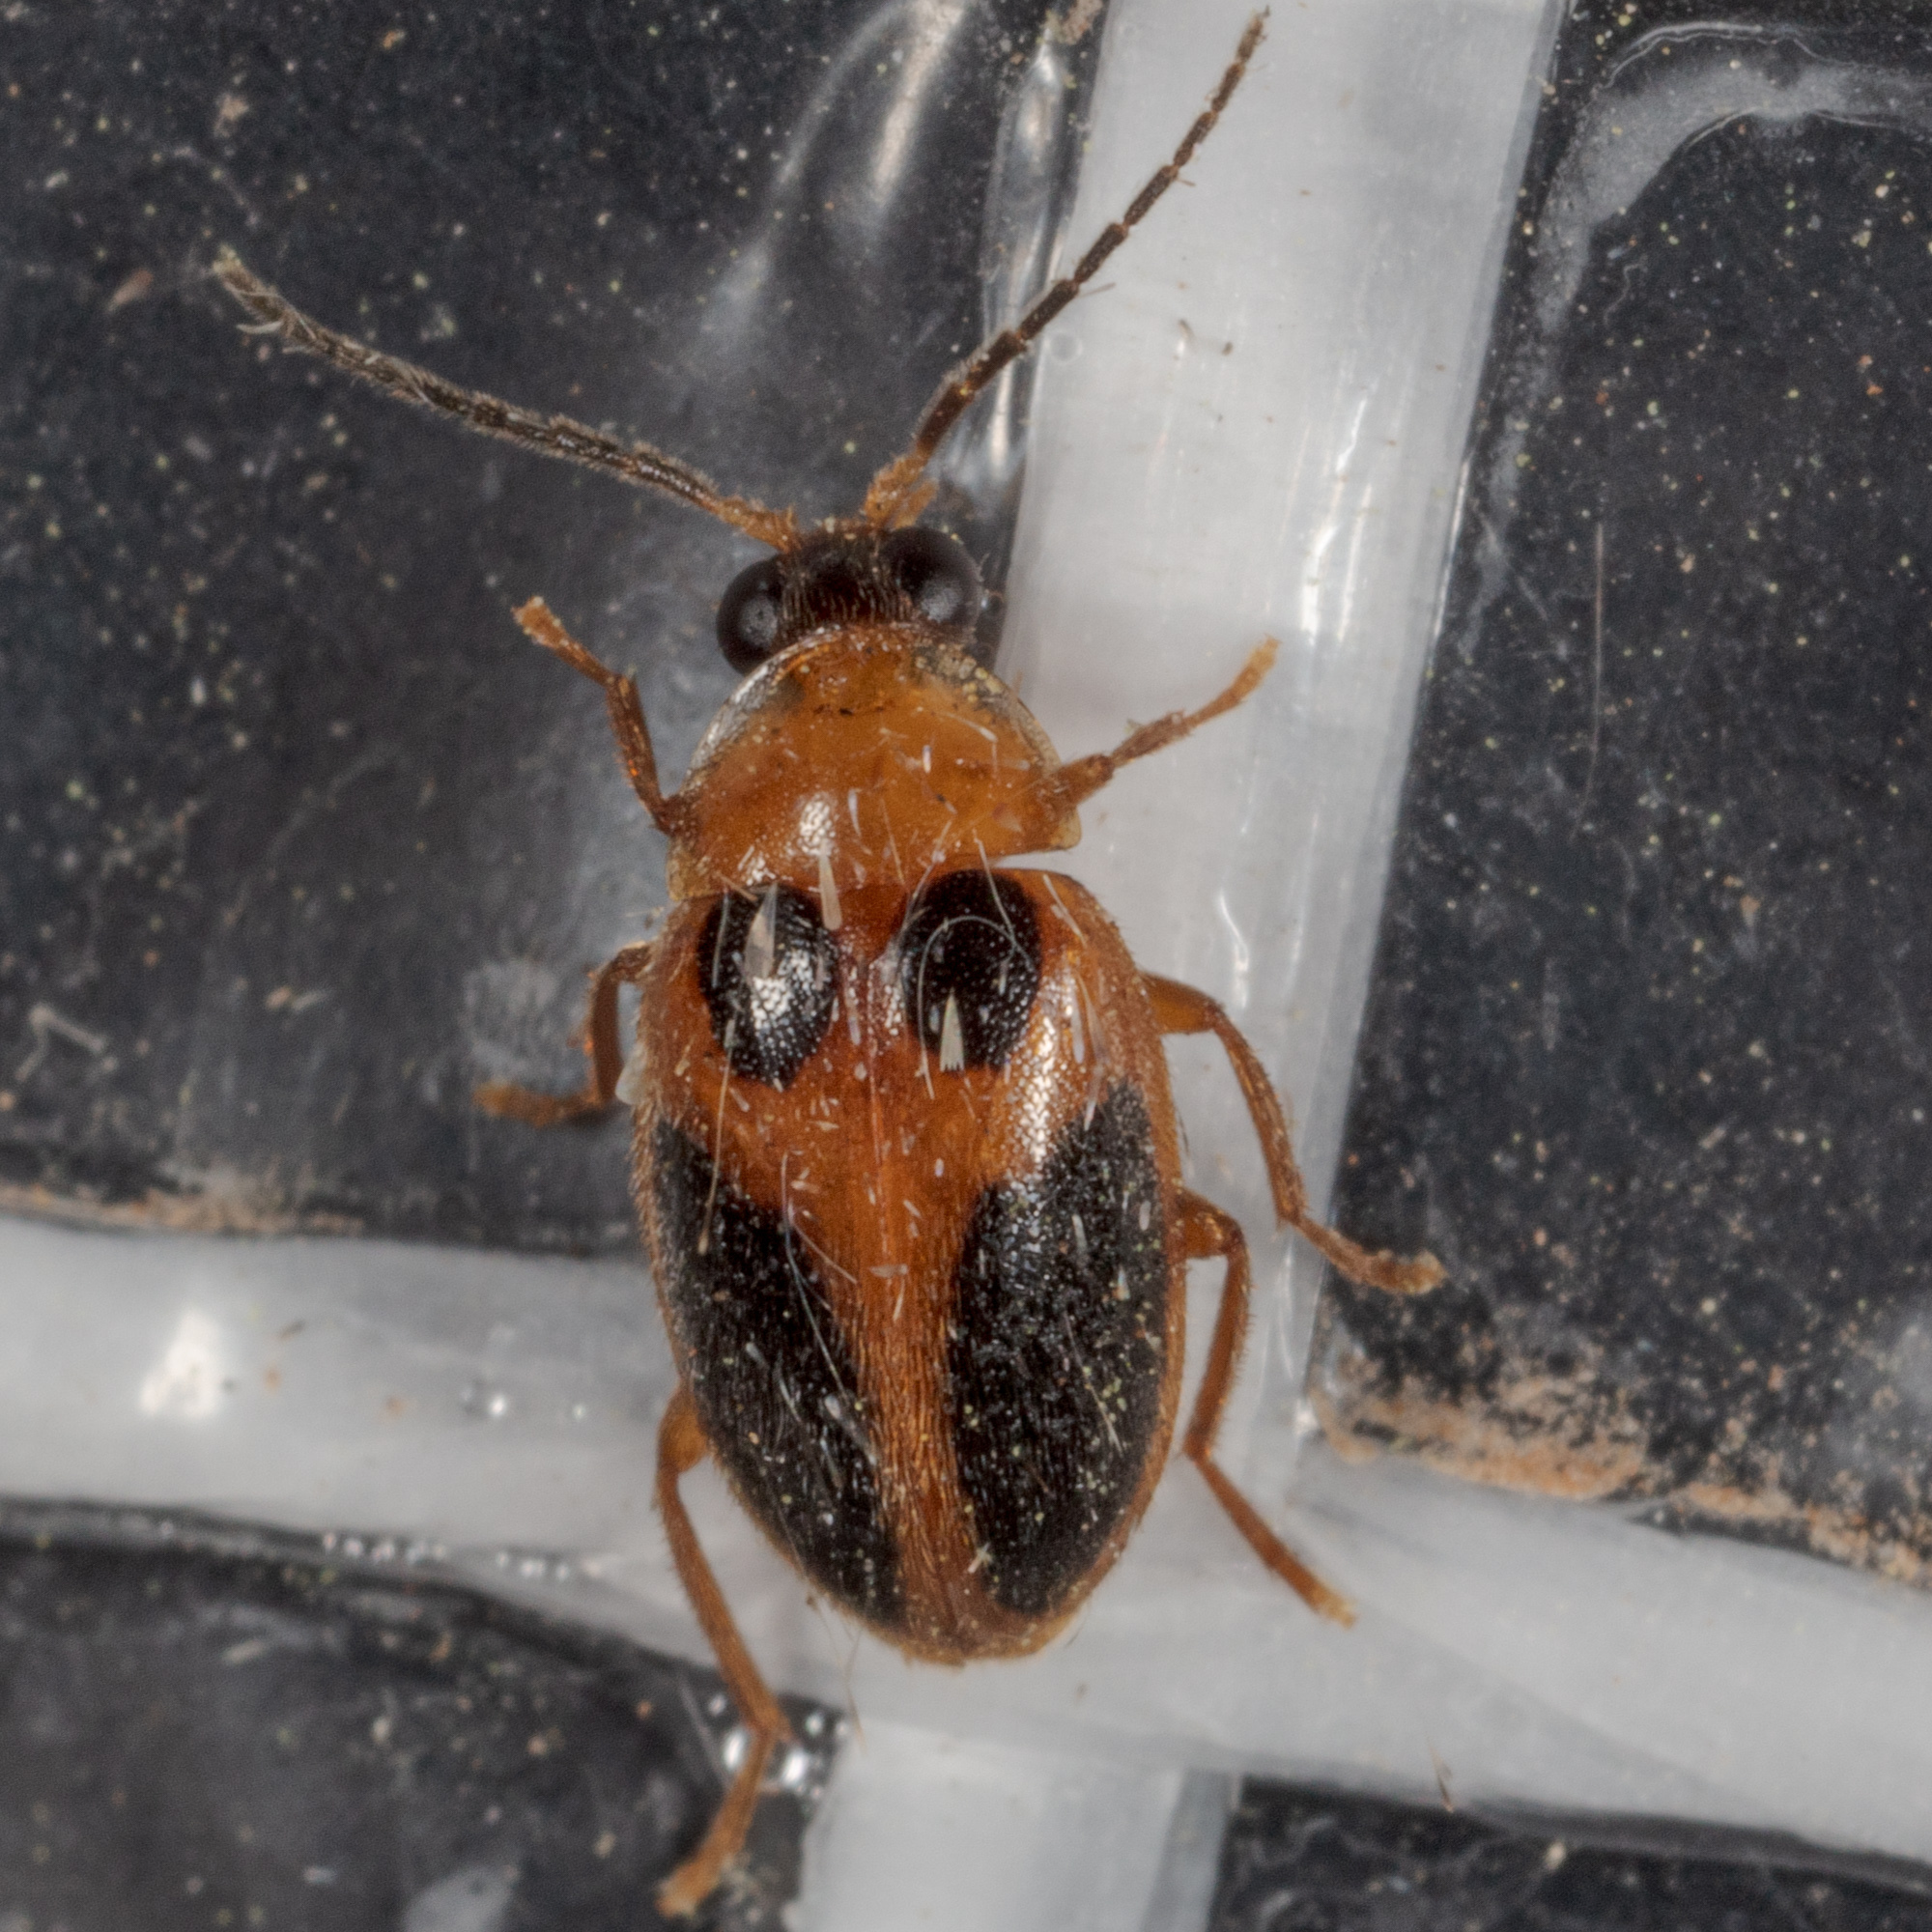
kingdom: Animalia
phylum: Arthropoda
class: Insecta
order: Coleoptera
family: Scirtidae
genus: Sacodes
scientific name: Sacodes pulchella
